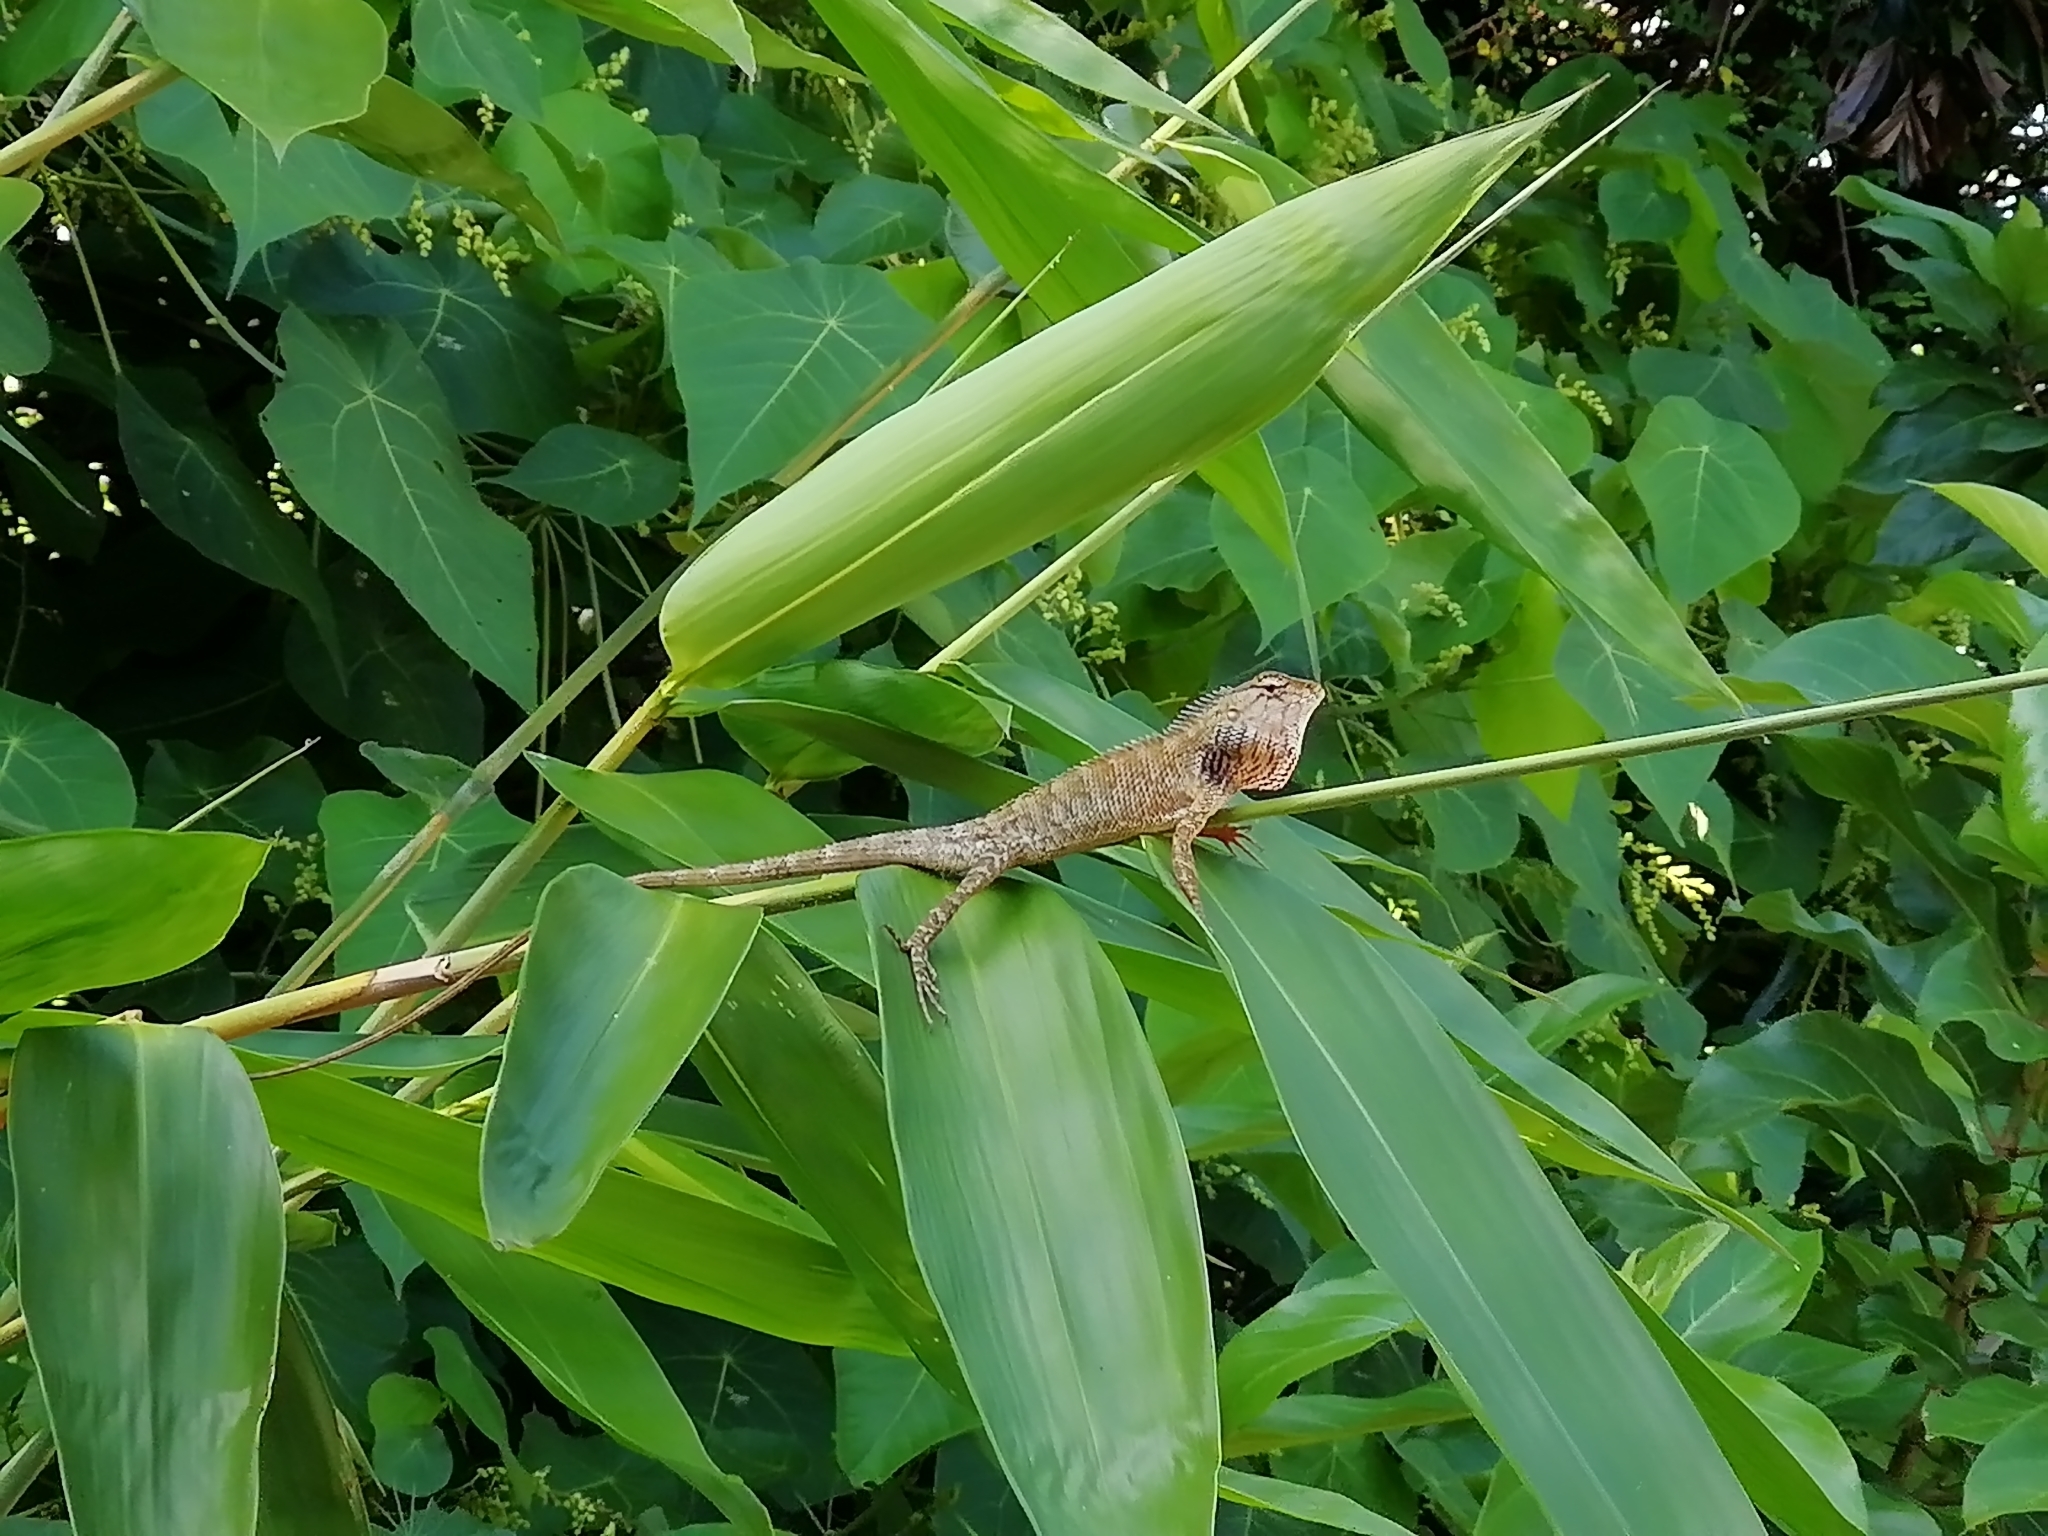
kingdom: Animalia
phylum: Chordata
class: Squamata
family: Agamidae
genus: Calotes
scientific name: Calotes versicolor
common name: Oriental garden lizard
